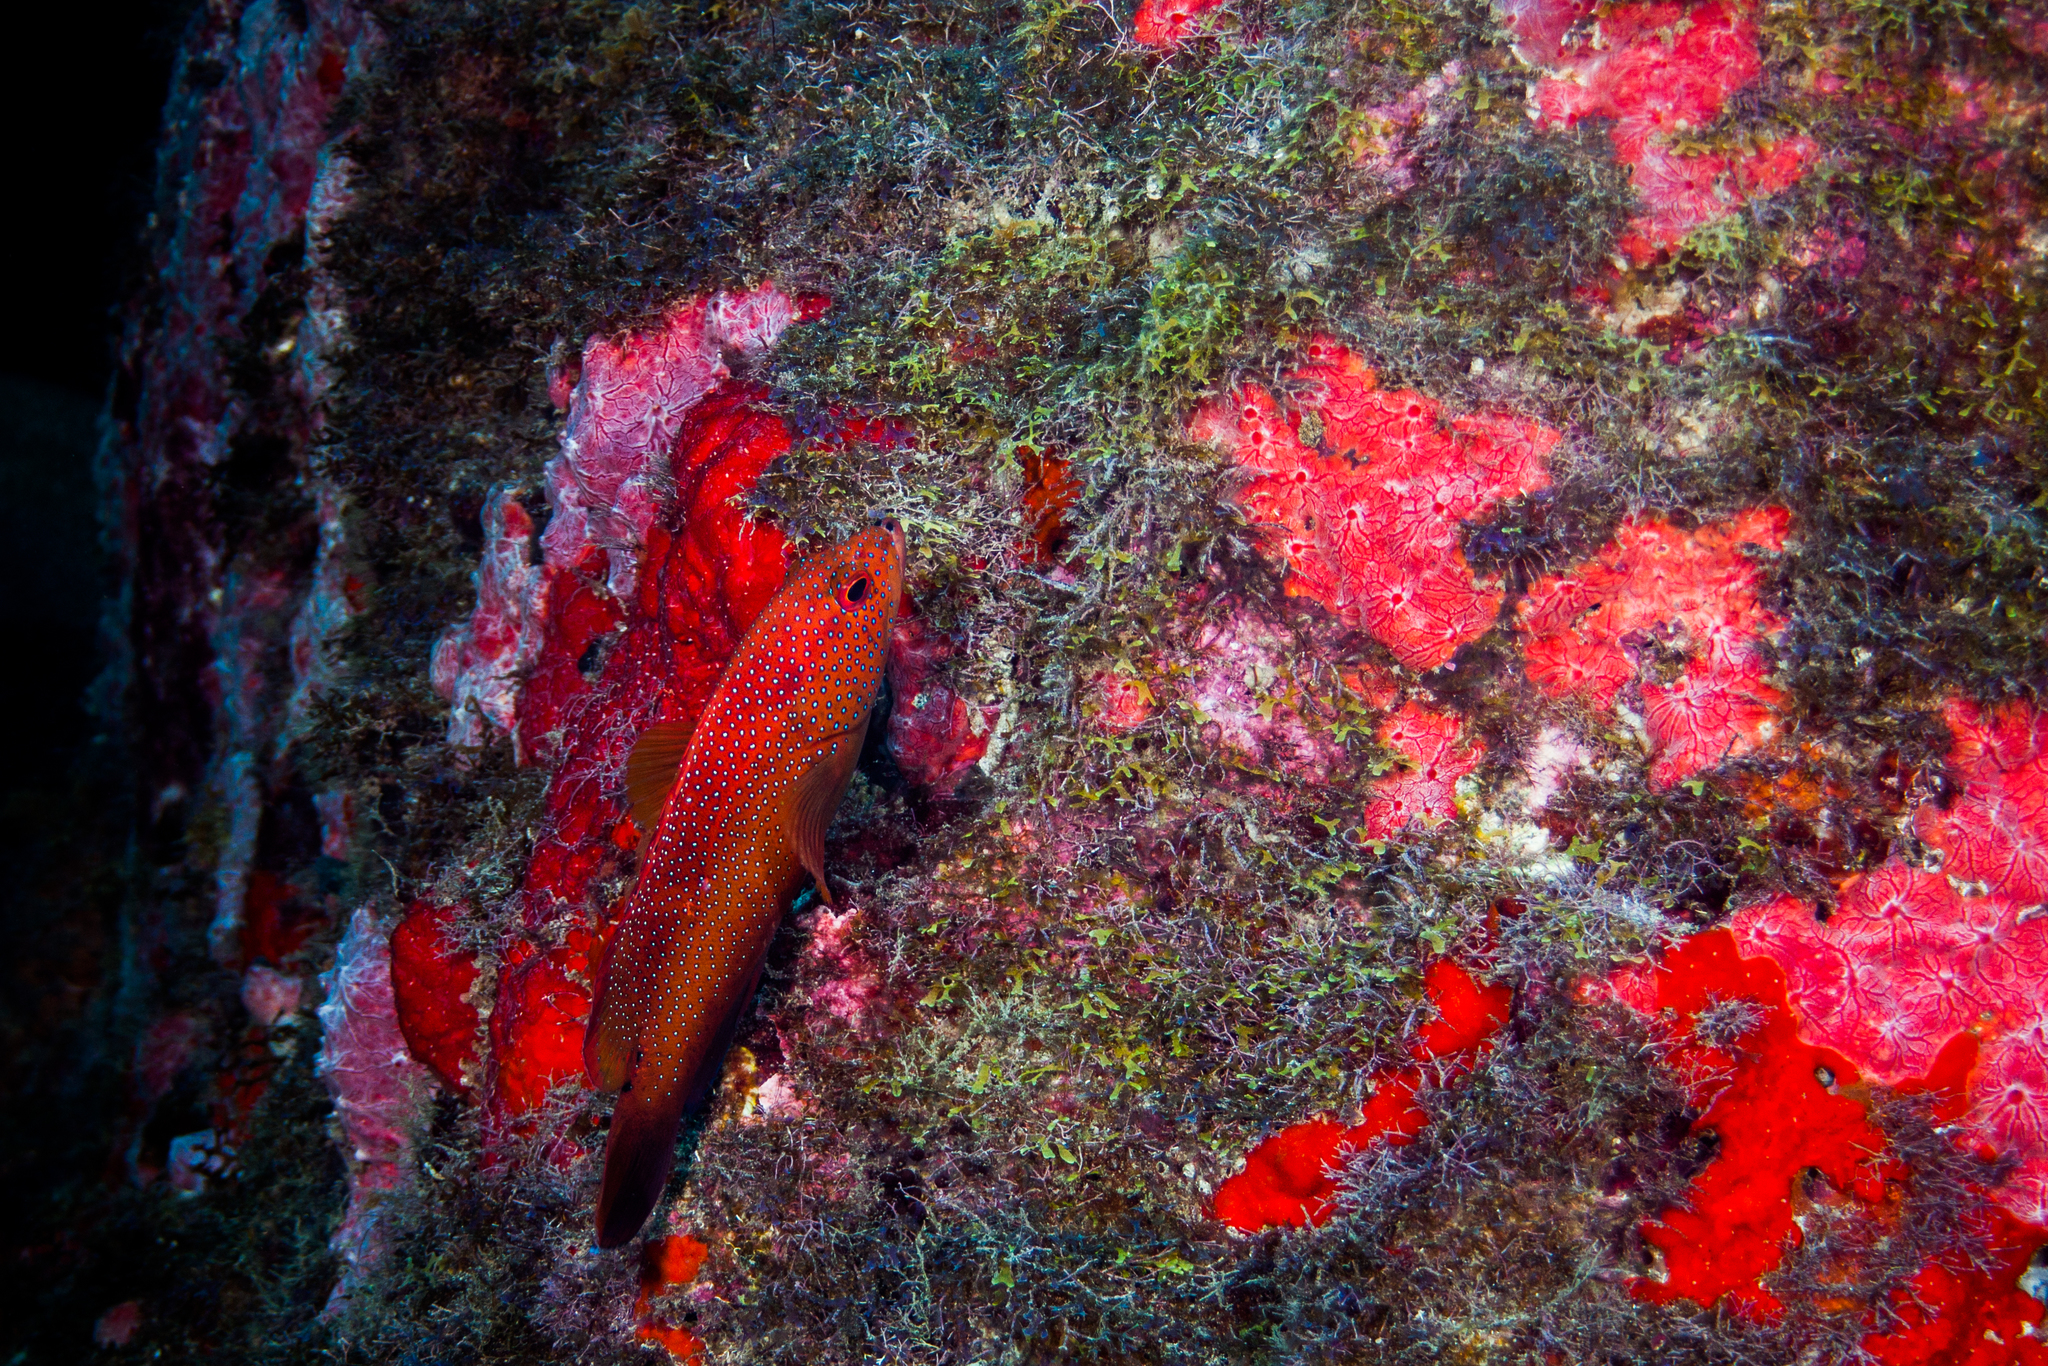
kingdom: Animalia
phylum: Chordata
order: Perciformes
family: Serranidae
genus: Cephalopholis
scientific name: Cephalopholis fulva
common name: Butterfish
